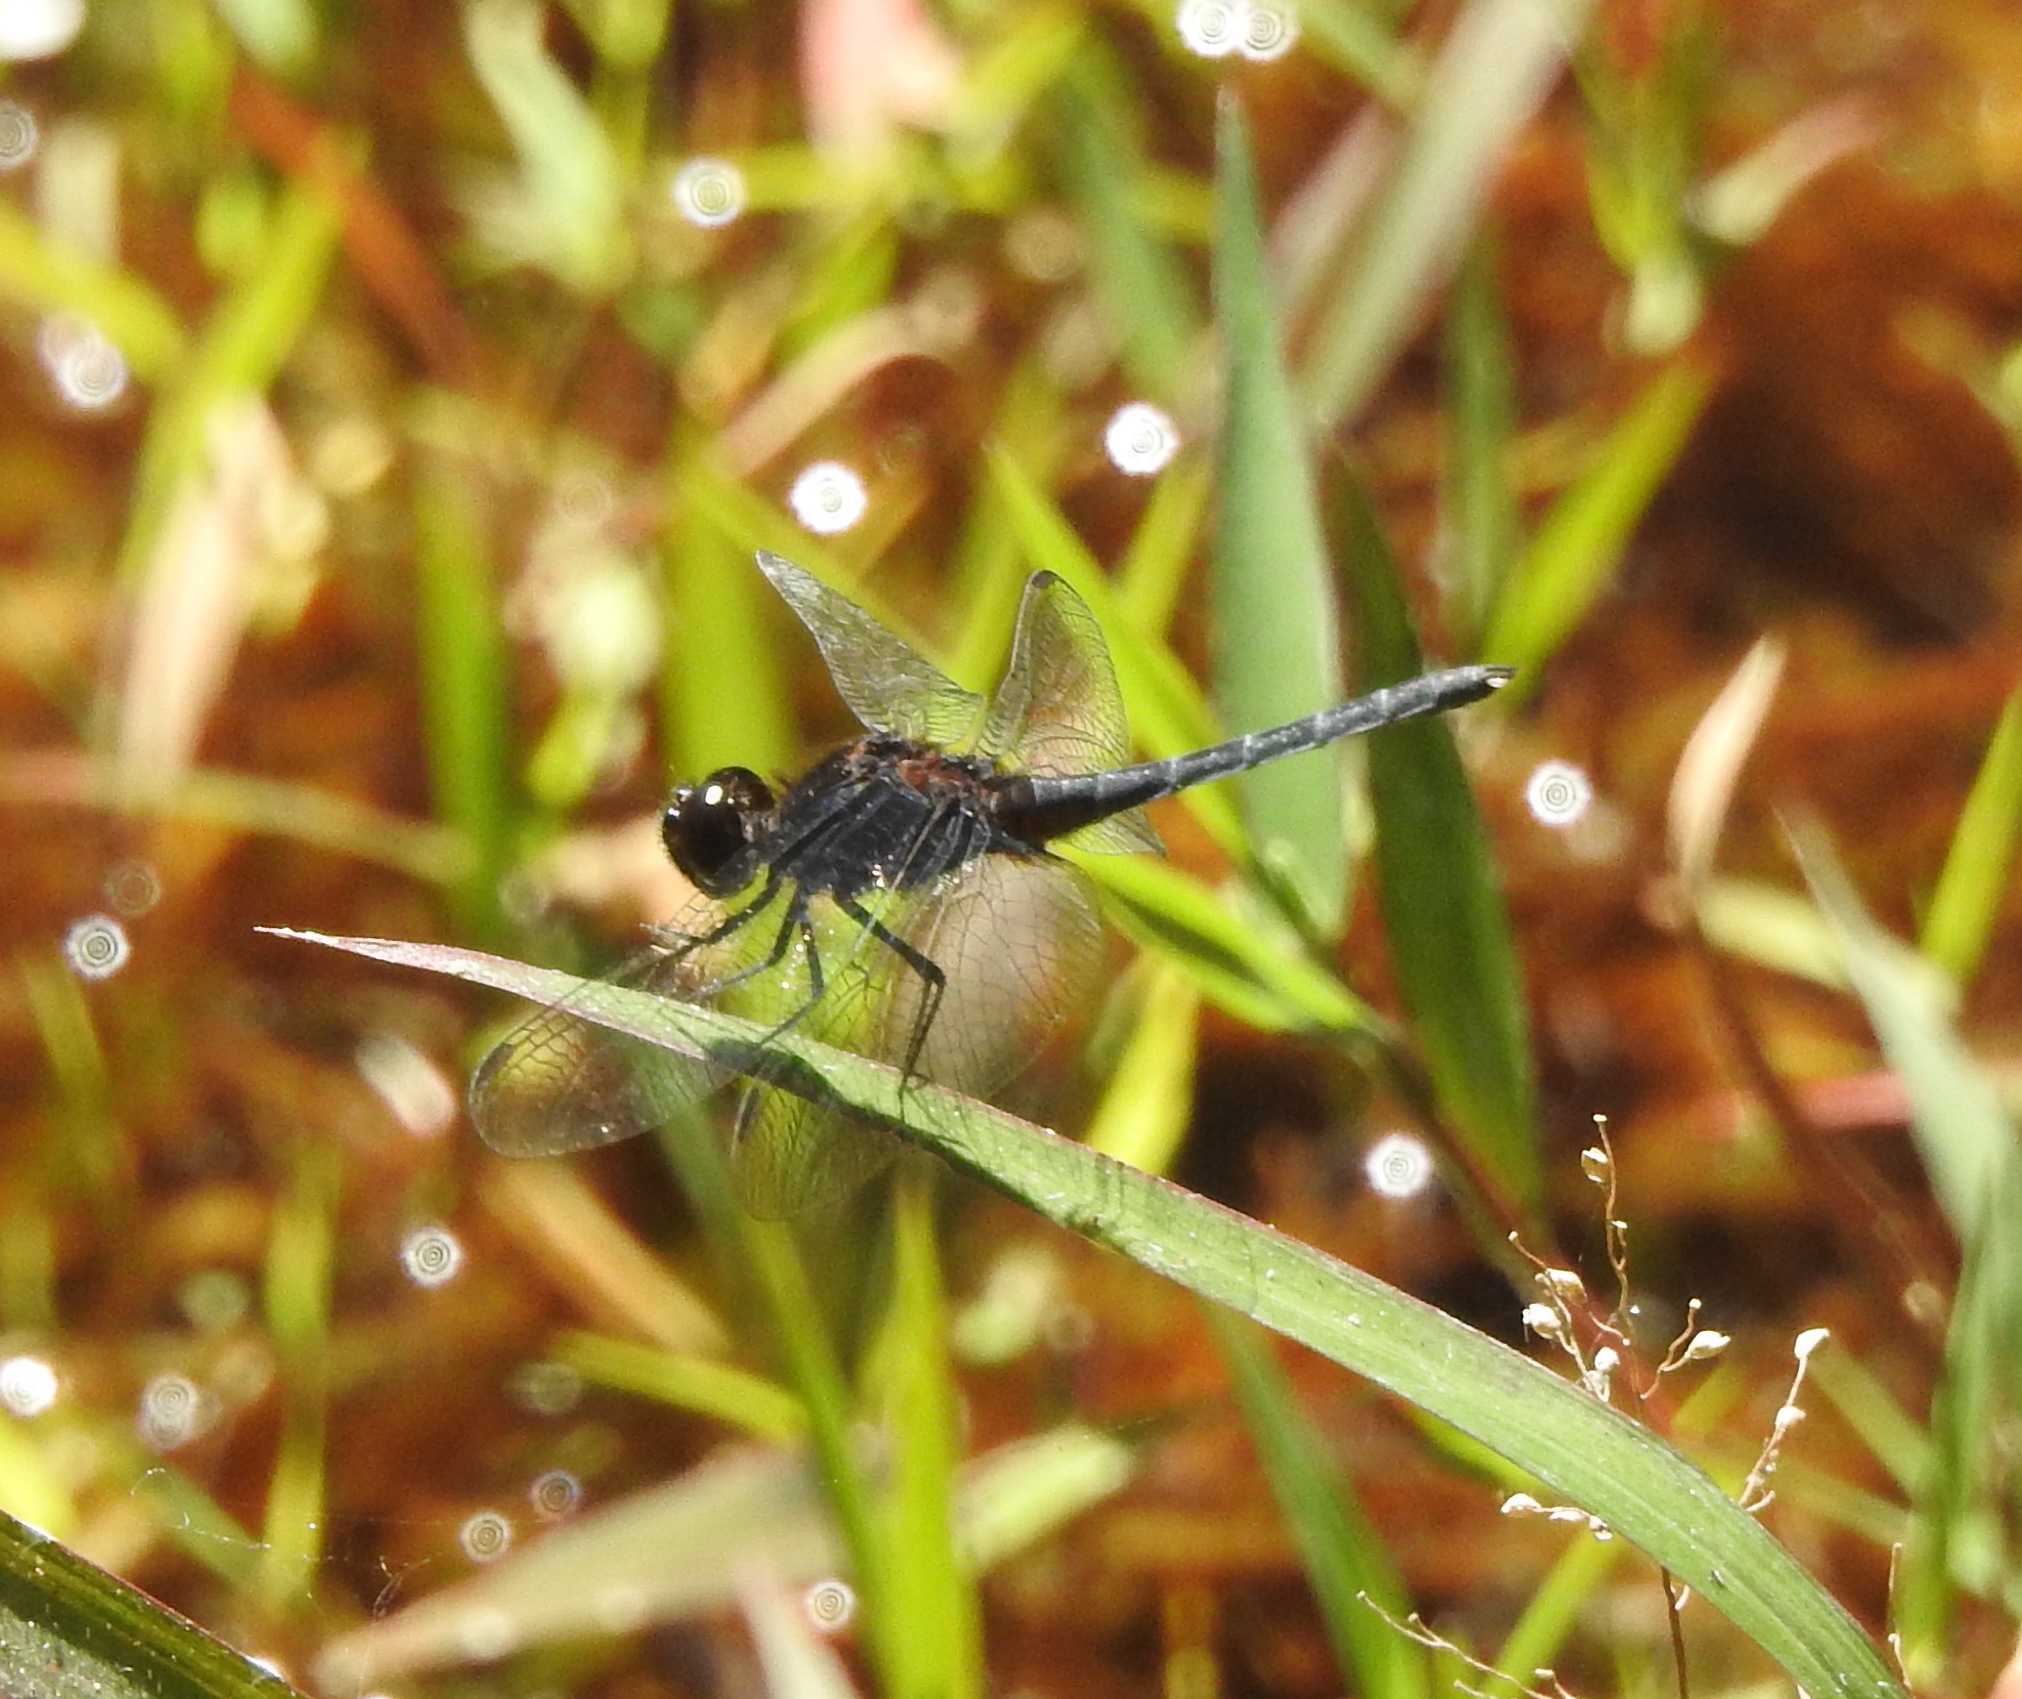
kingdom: Animalia
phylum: Arthropoda
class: Insecta
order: Odonata
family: Libellulidae
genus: Diplacodes
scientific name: Diplacodes lefebvrii
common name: Black percher
